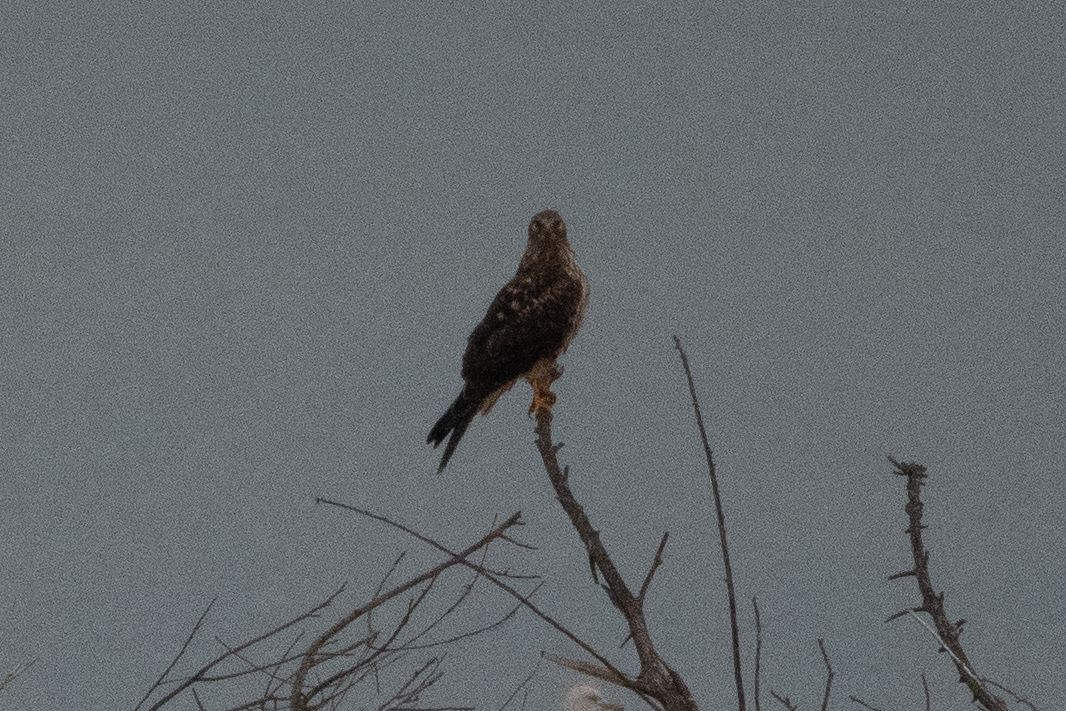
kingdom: Animalia
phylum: Chordata
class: Aves
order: Accipitriformes
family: Accipitridae
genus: Circus
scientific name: Circus cyaneus
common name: Hen harrier
